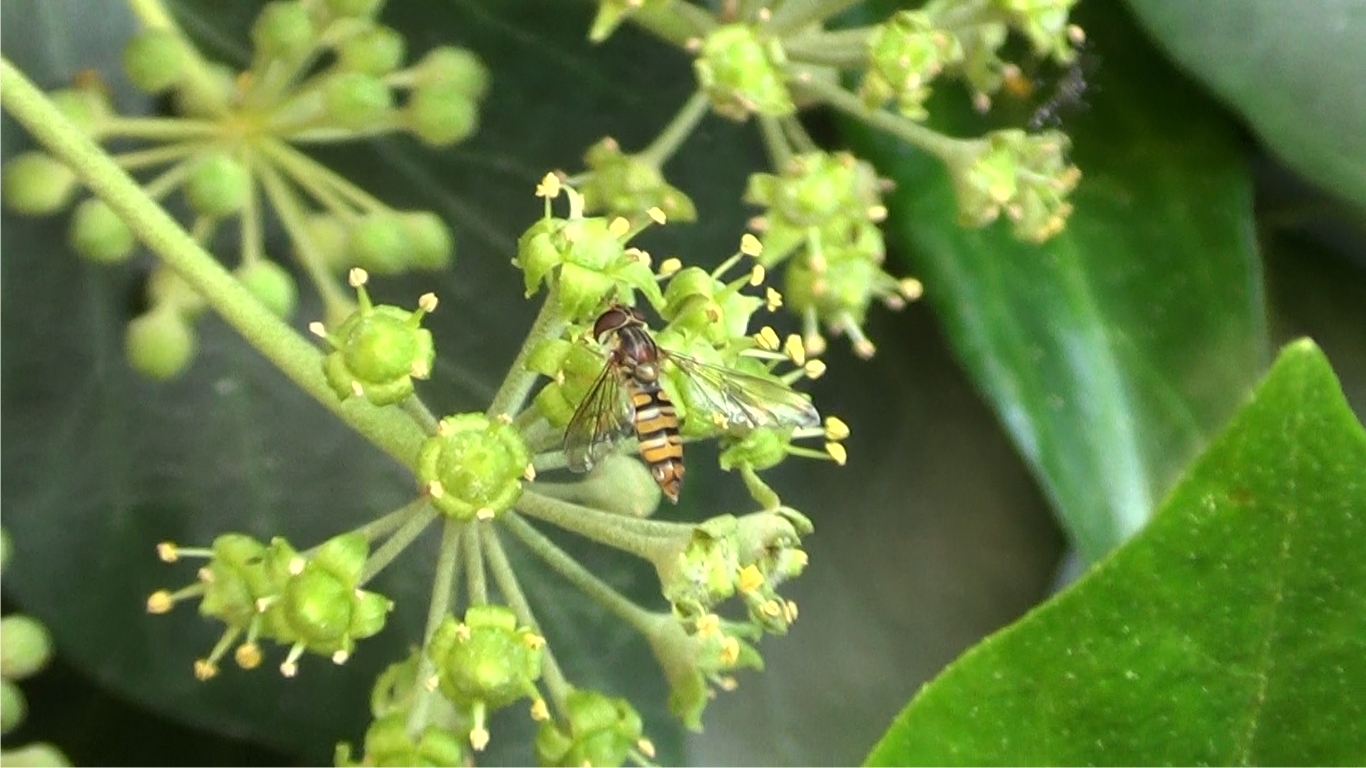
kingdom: Animalia
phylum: Arthropoda
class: Insecta
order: Diptera
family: Syrphidae
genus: Episyrphus
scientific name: Episyrphus balteatus
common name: Marmalade hoverfly
